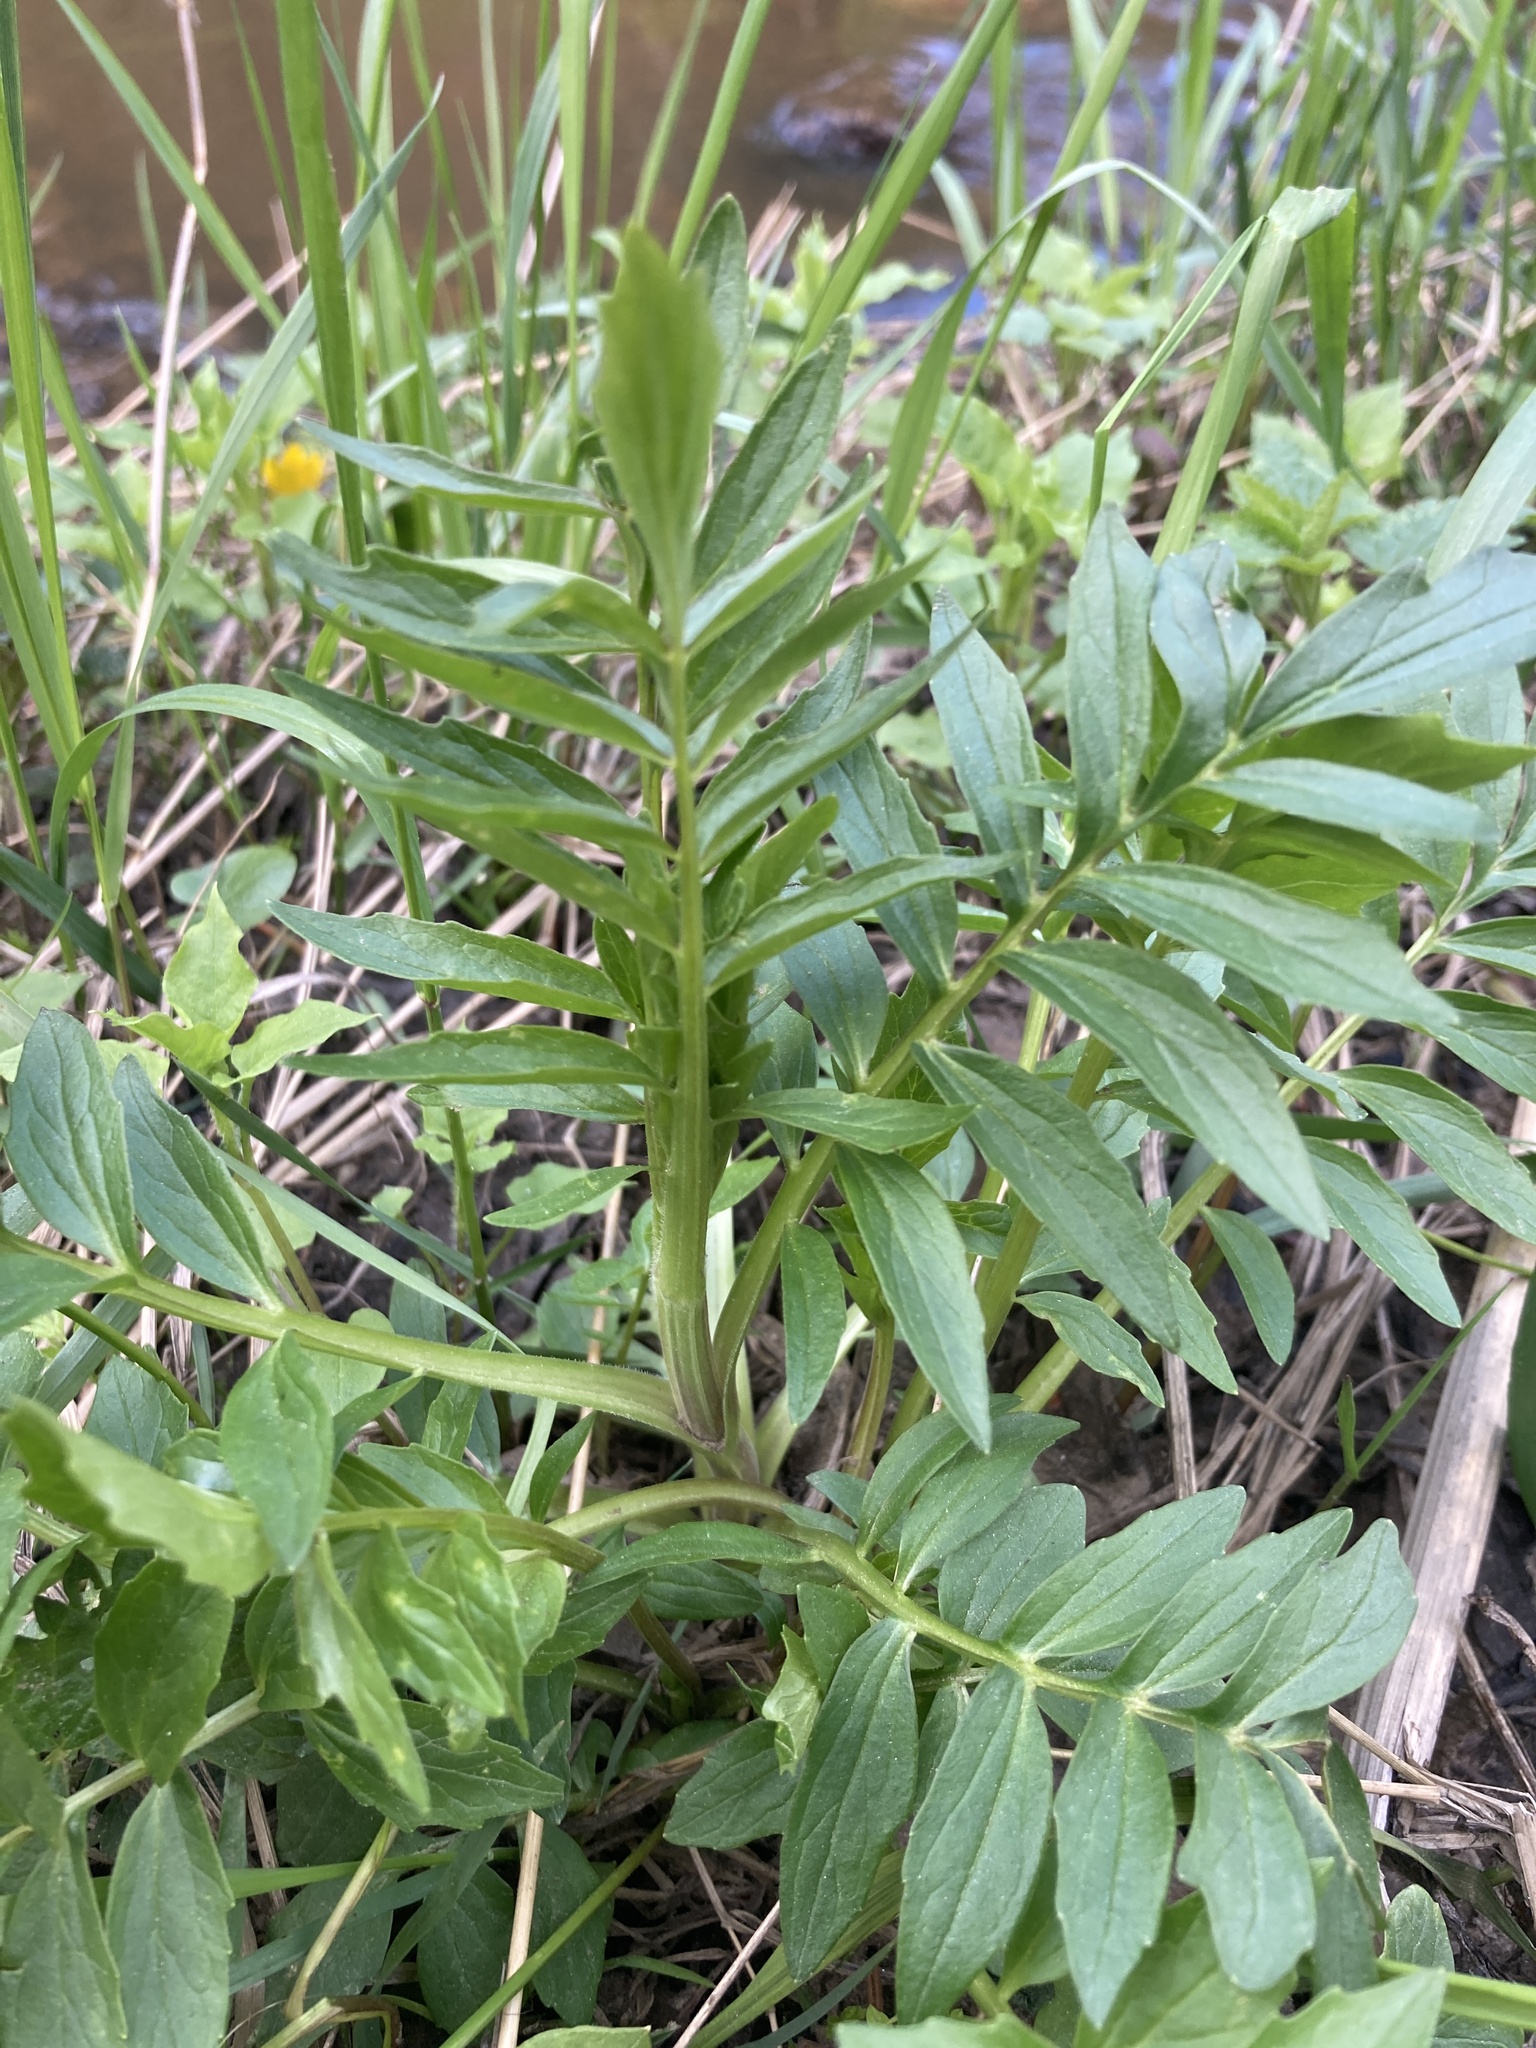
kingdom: Plantae
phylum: Tracheophyta
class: Magnoliopsida
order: Dipsacales
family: Caprifoliaceae
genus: Valeriana
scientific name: Valeriana officinalis
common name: Common valerian
